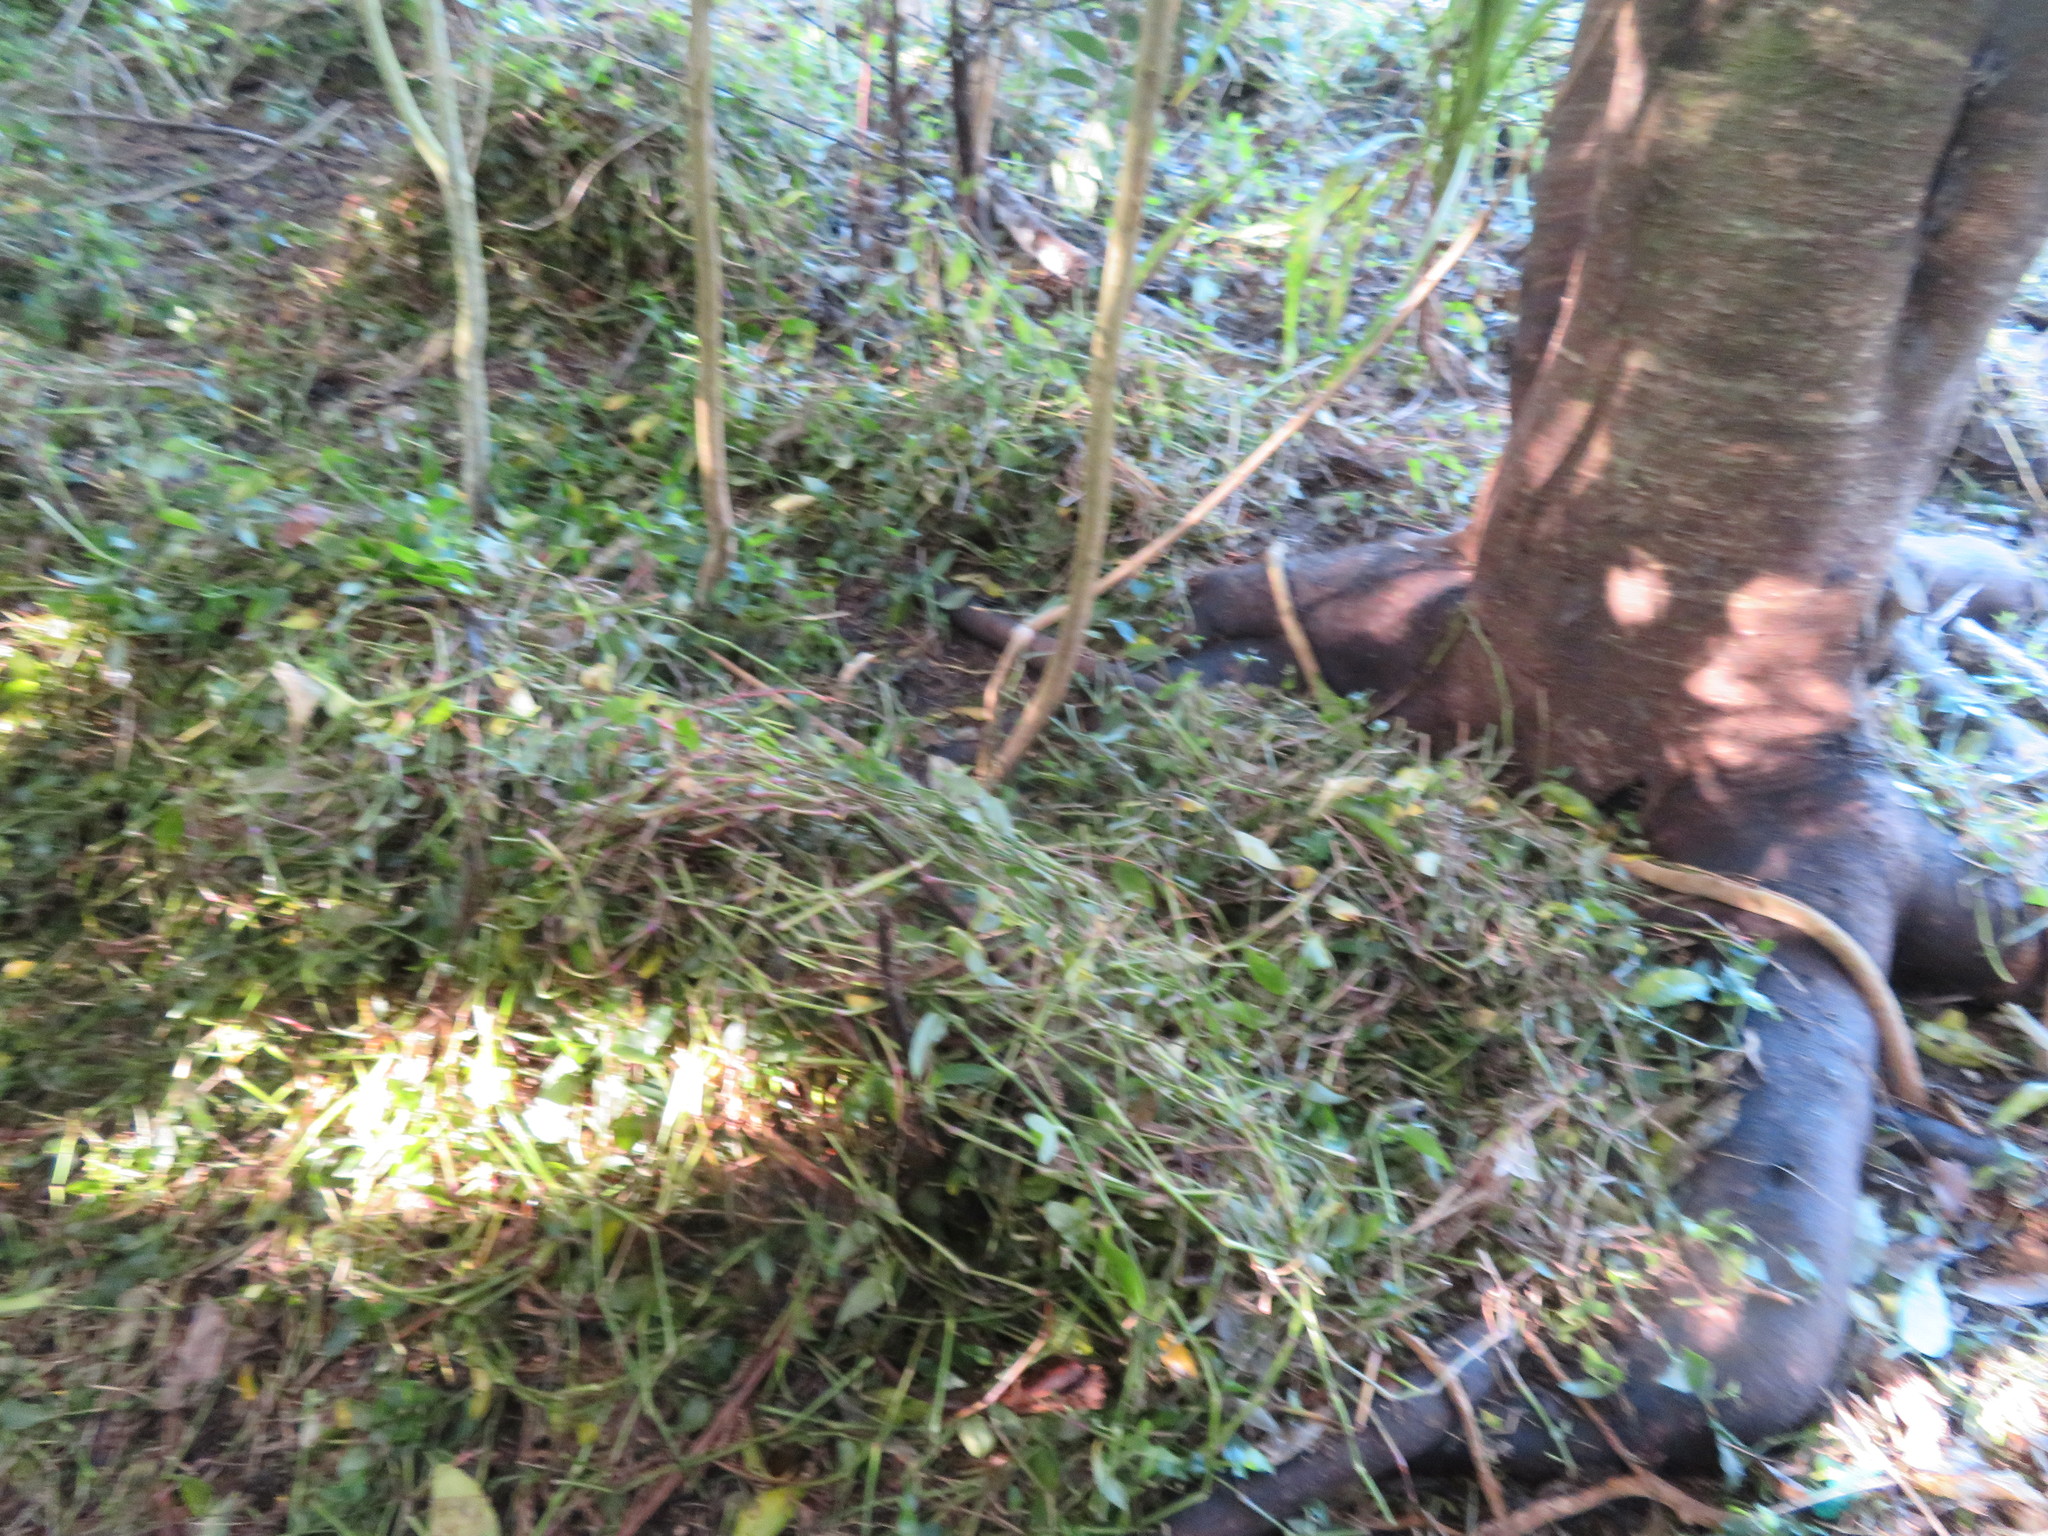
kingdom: Plantae
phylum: Tracheophyta
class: Liliopsida
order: Commelinales
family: Commelinaceae
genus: Tradescantia
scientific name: Tradescantia fluminensis
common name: Wandering-jew
